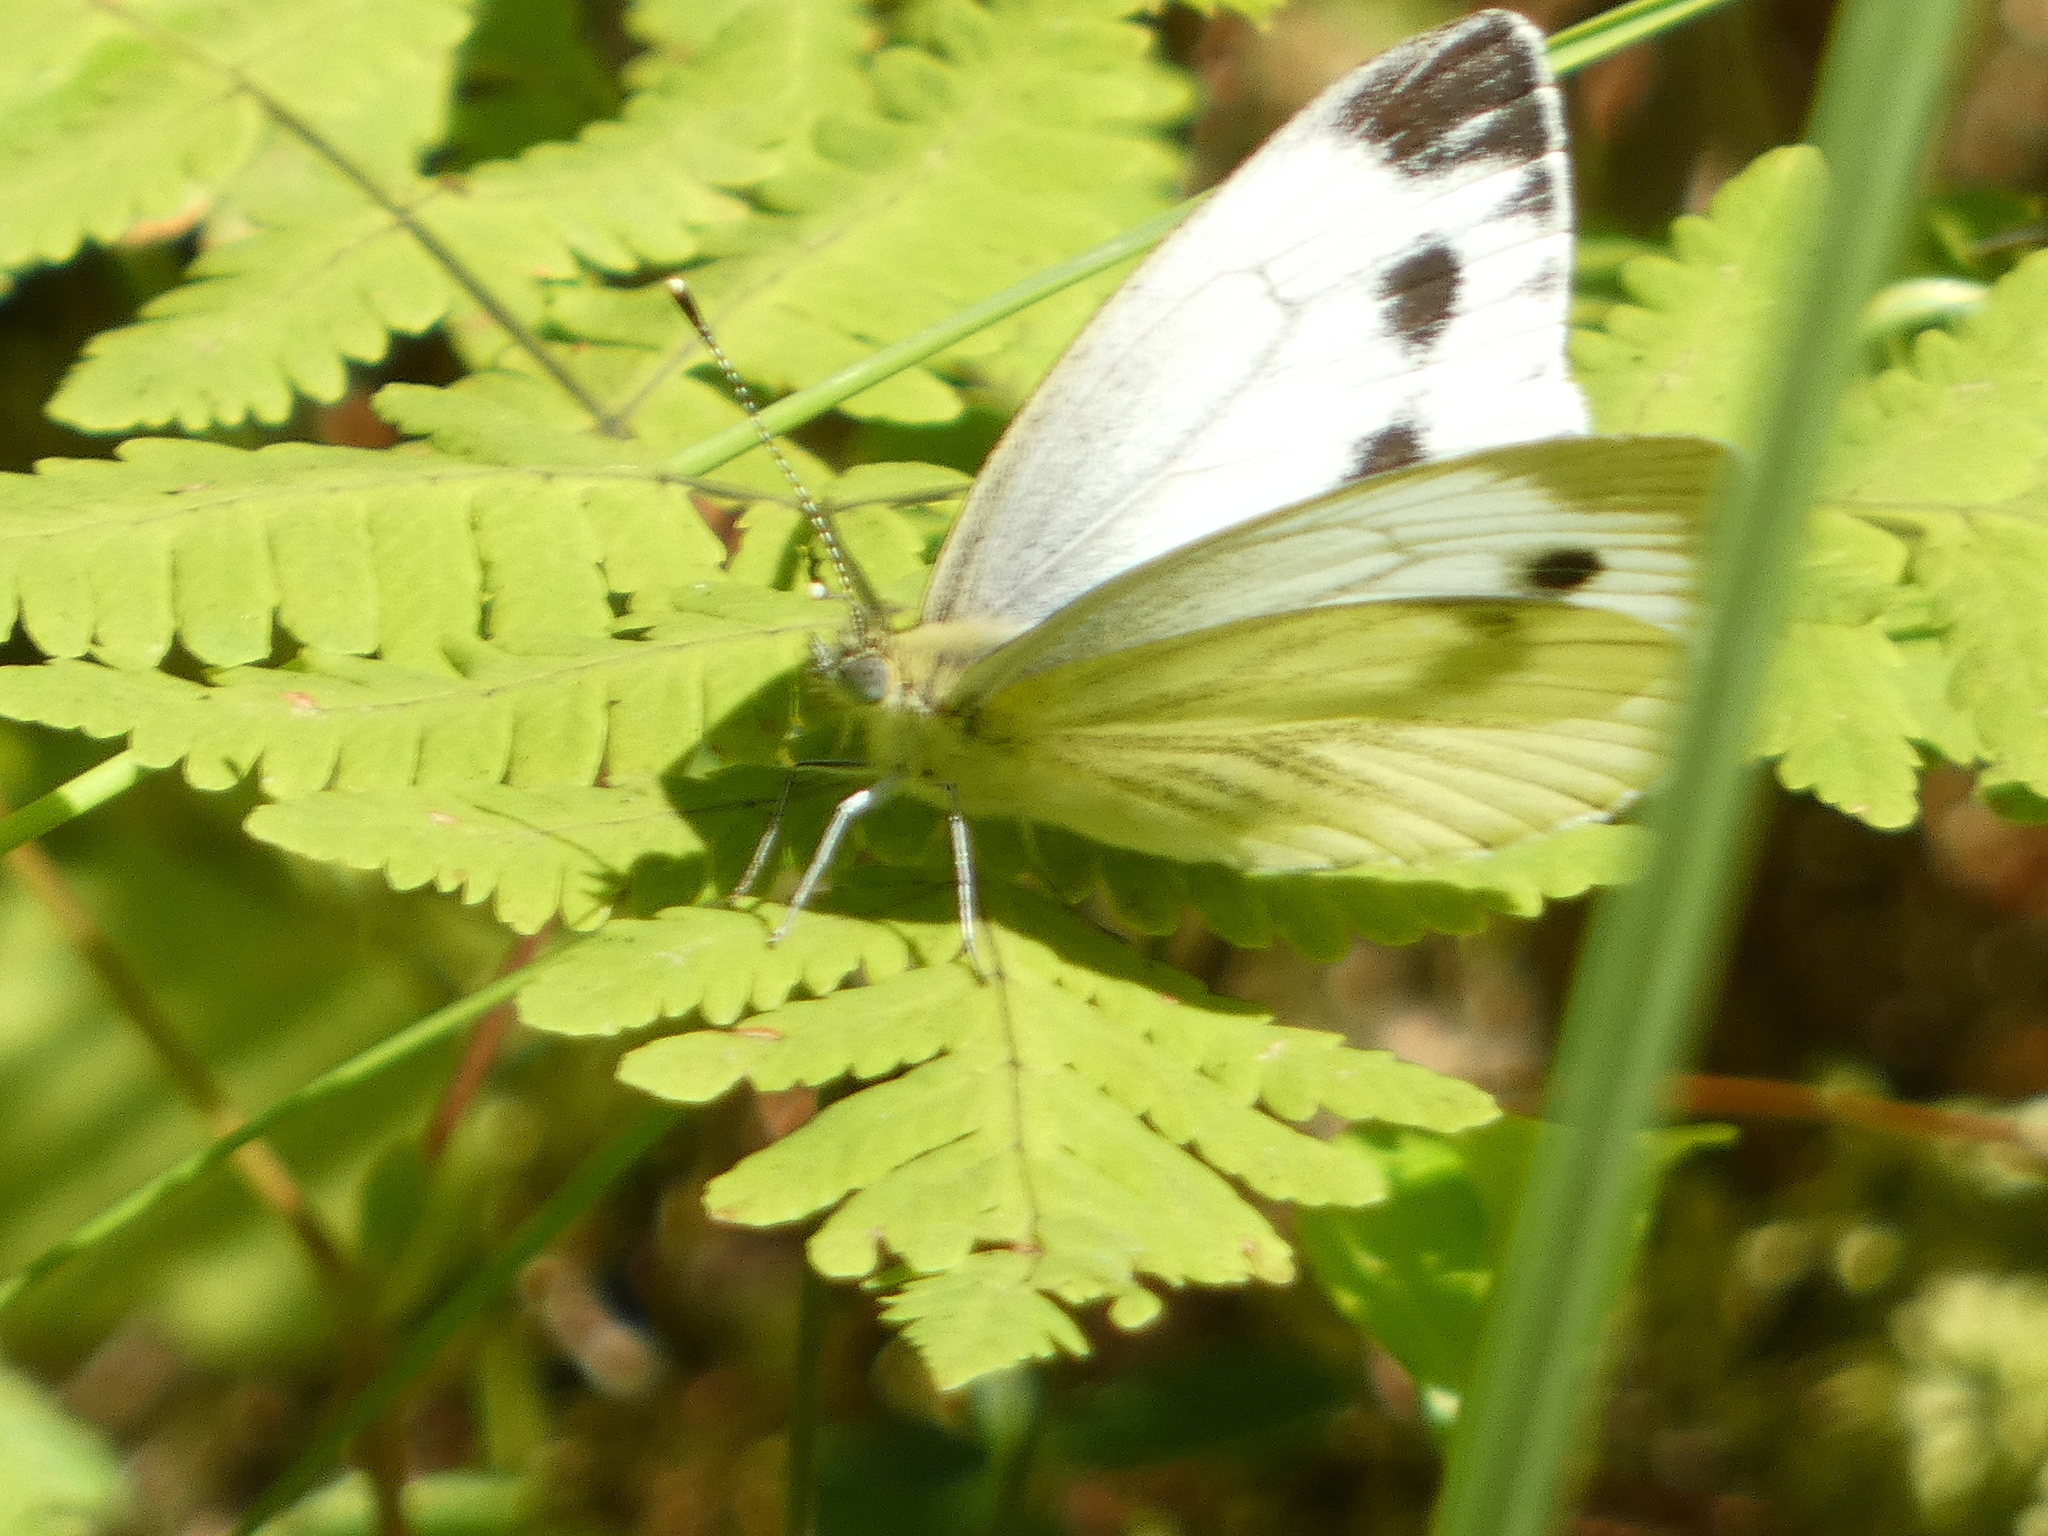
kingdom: Animalia
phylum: Arthropoda
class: Insecta
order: Lepidoptera
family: Pieridae
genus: Pieris
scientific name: Pieris napi
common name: Green-veined white
